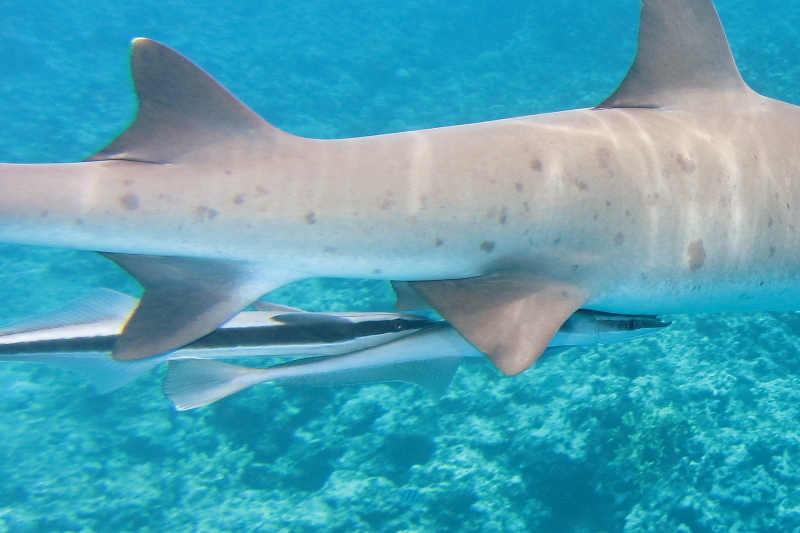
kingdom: Animalia
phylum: Chordata
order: Perciformes
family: Echeneidae
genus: Echeneis
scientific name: Echeneis naucrates
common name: Sharksucker
